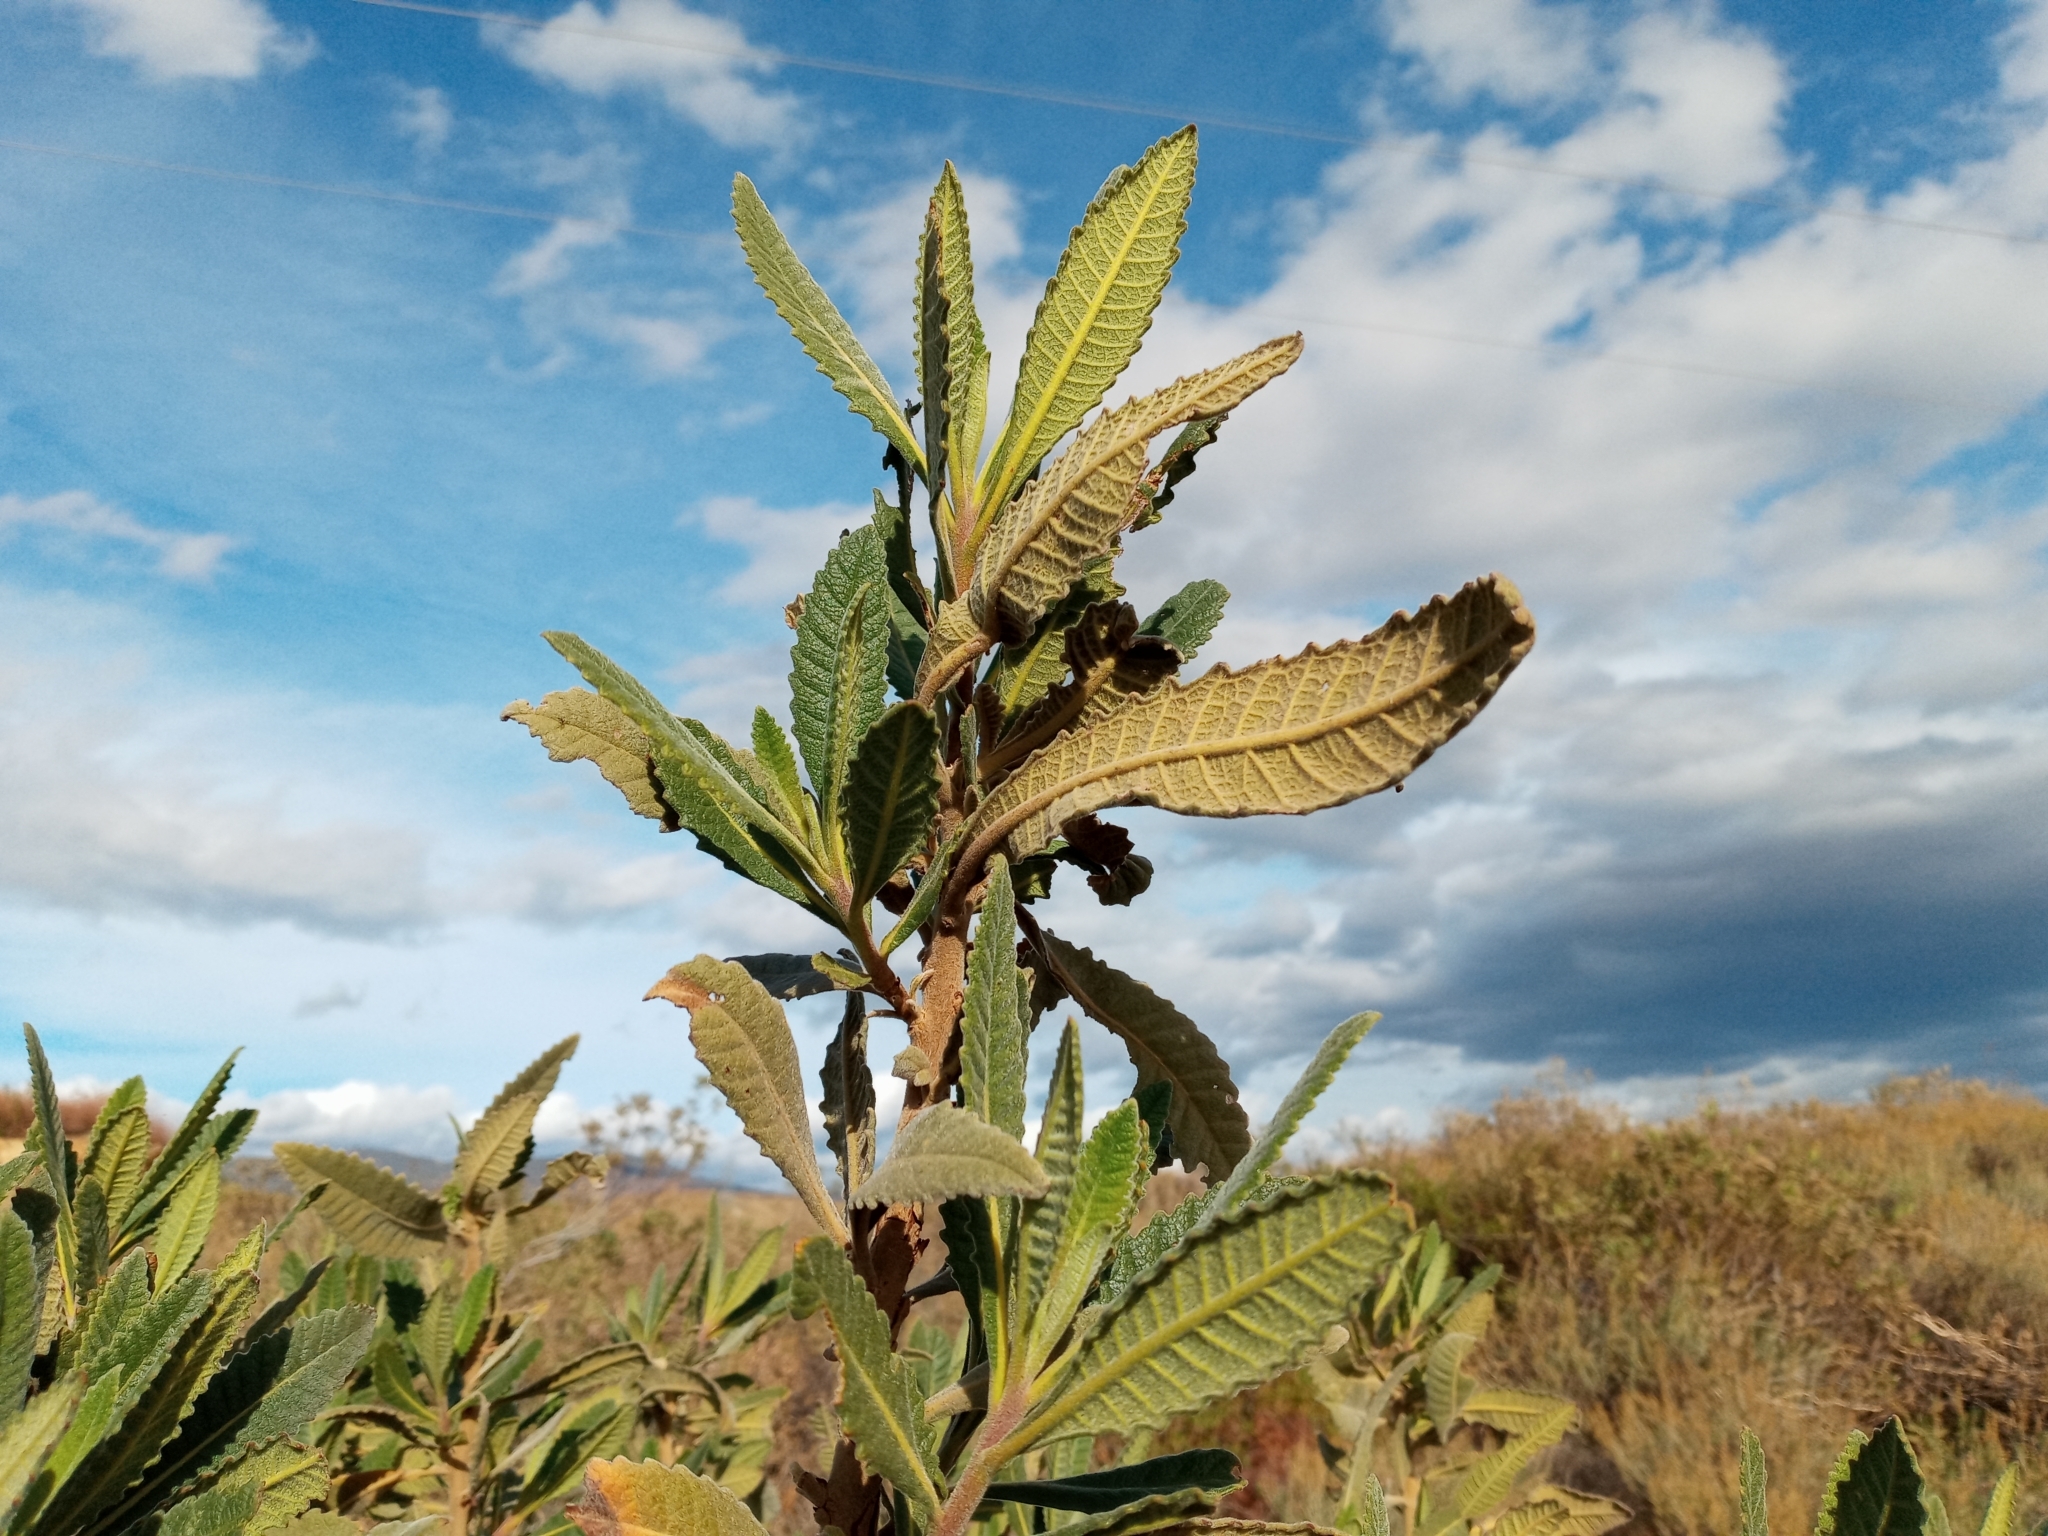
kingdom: Plantae
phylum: Tracheophyta
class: Magnoliopsida
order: Boraginales
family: Namaceae
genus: Eriodictyon
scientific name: Eriodictyon crassifolium
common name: Thick-leaf yerba-santa
